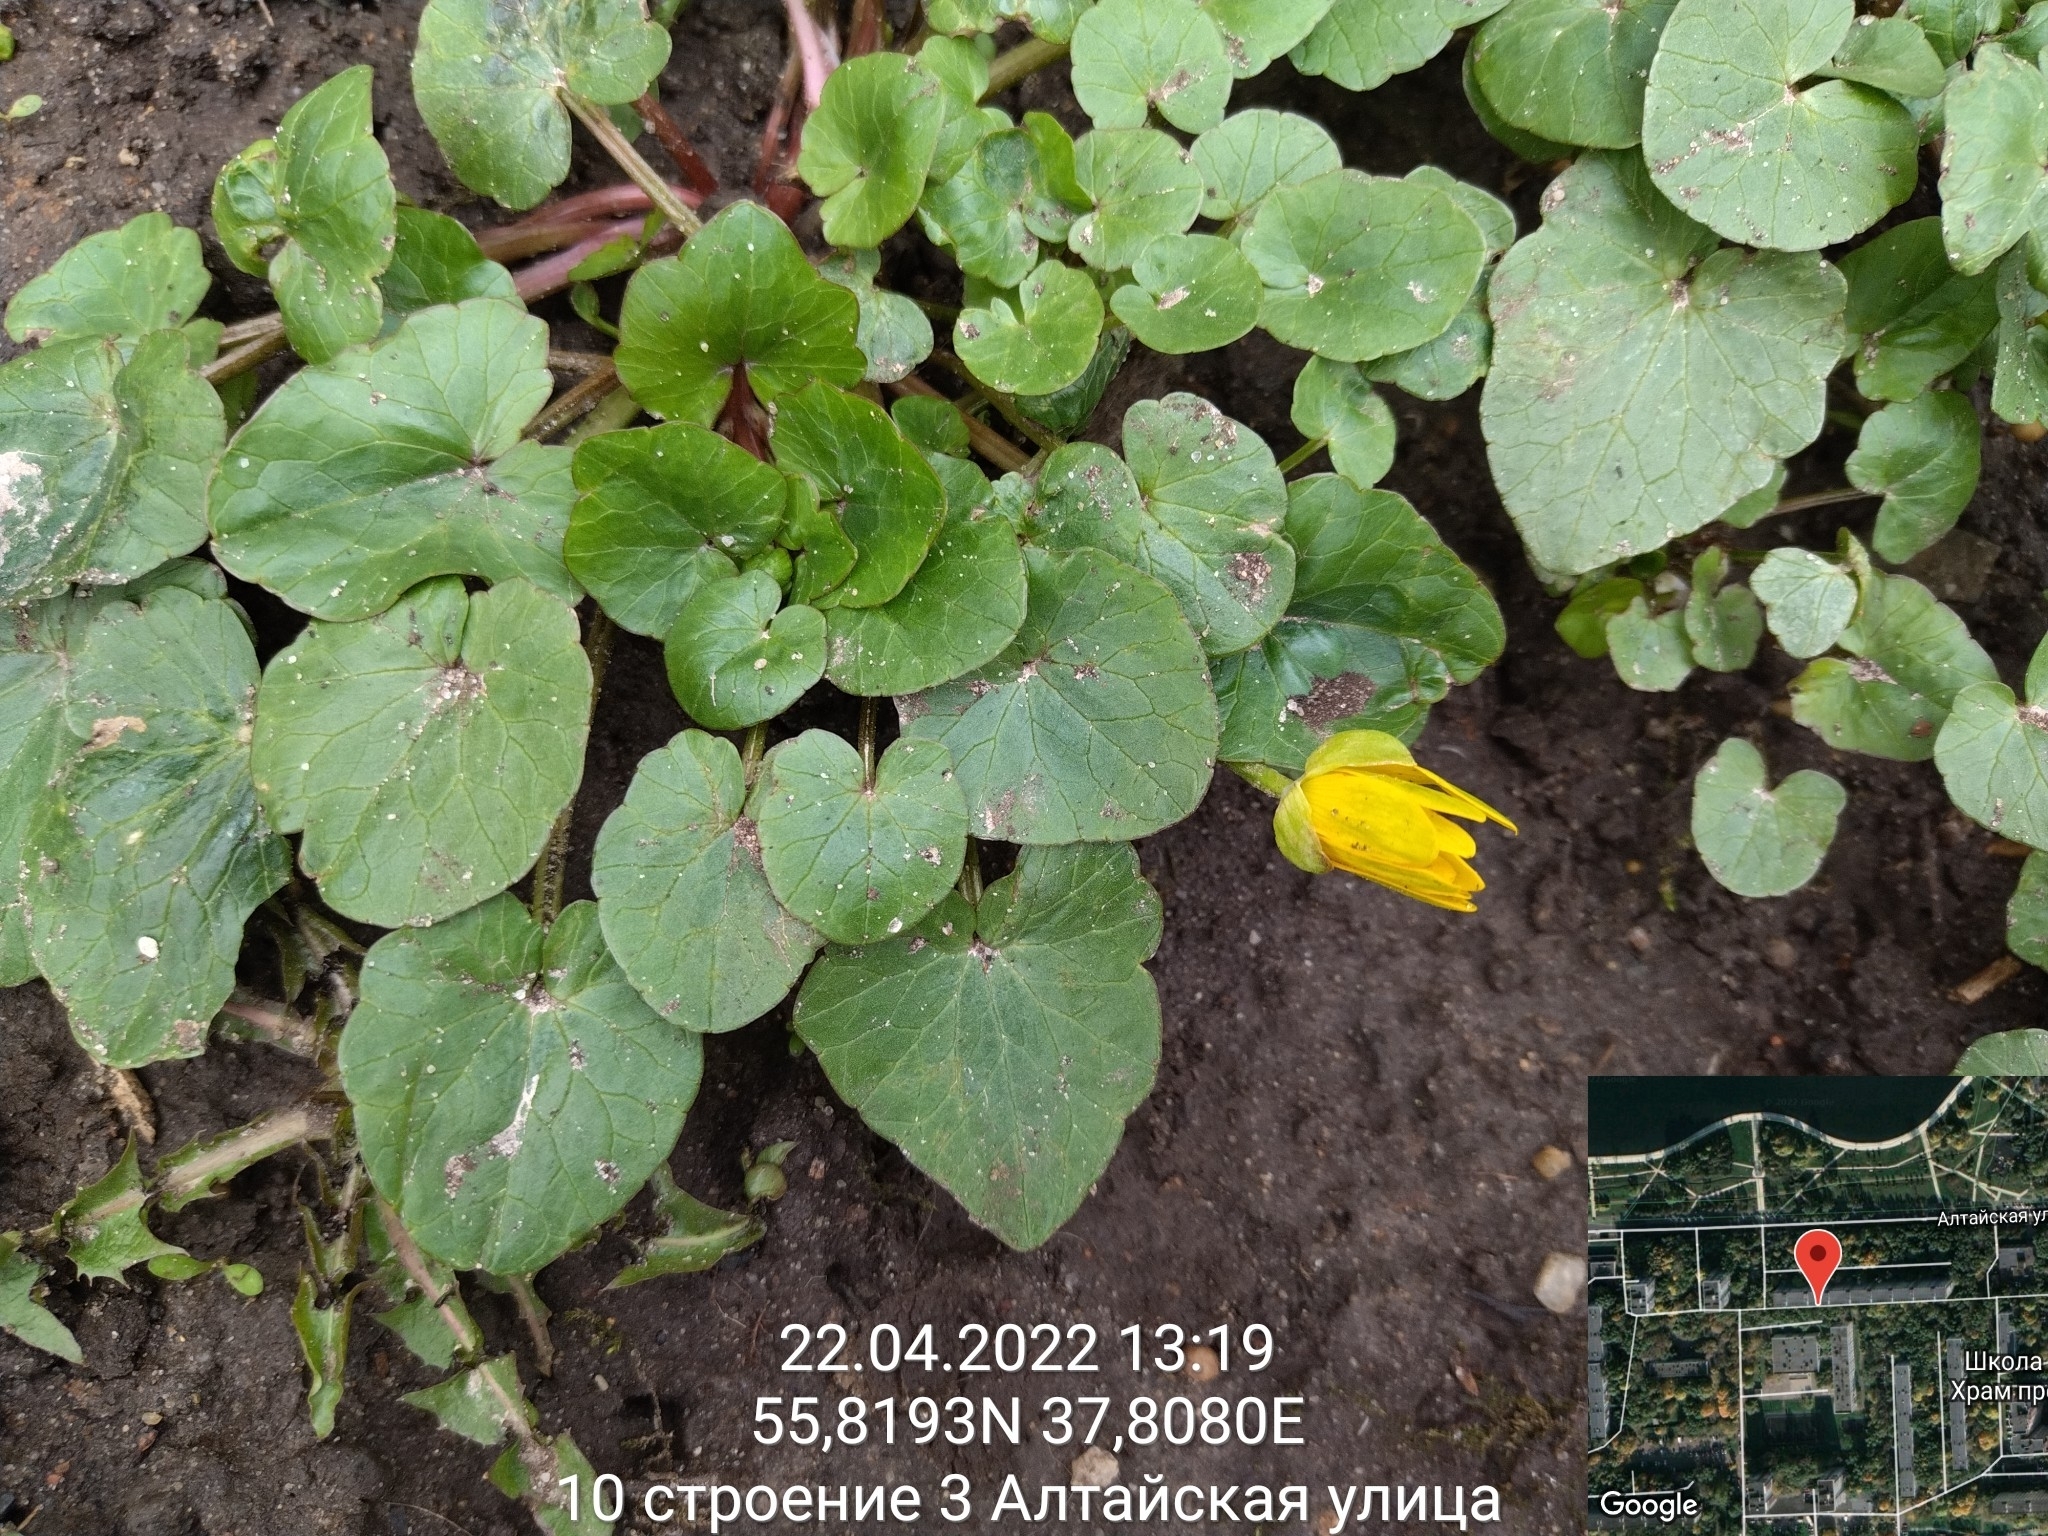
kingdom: Plantae
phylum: Tracheophyta
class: Magnoliopsida
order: Ranunculales
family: Ranunculaceae
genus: Ficaria
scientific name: Ficaria verna
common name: Lesser celandine
